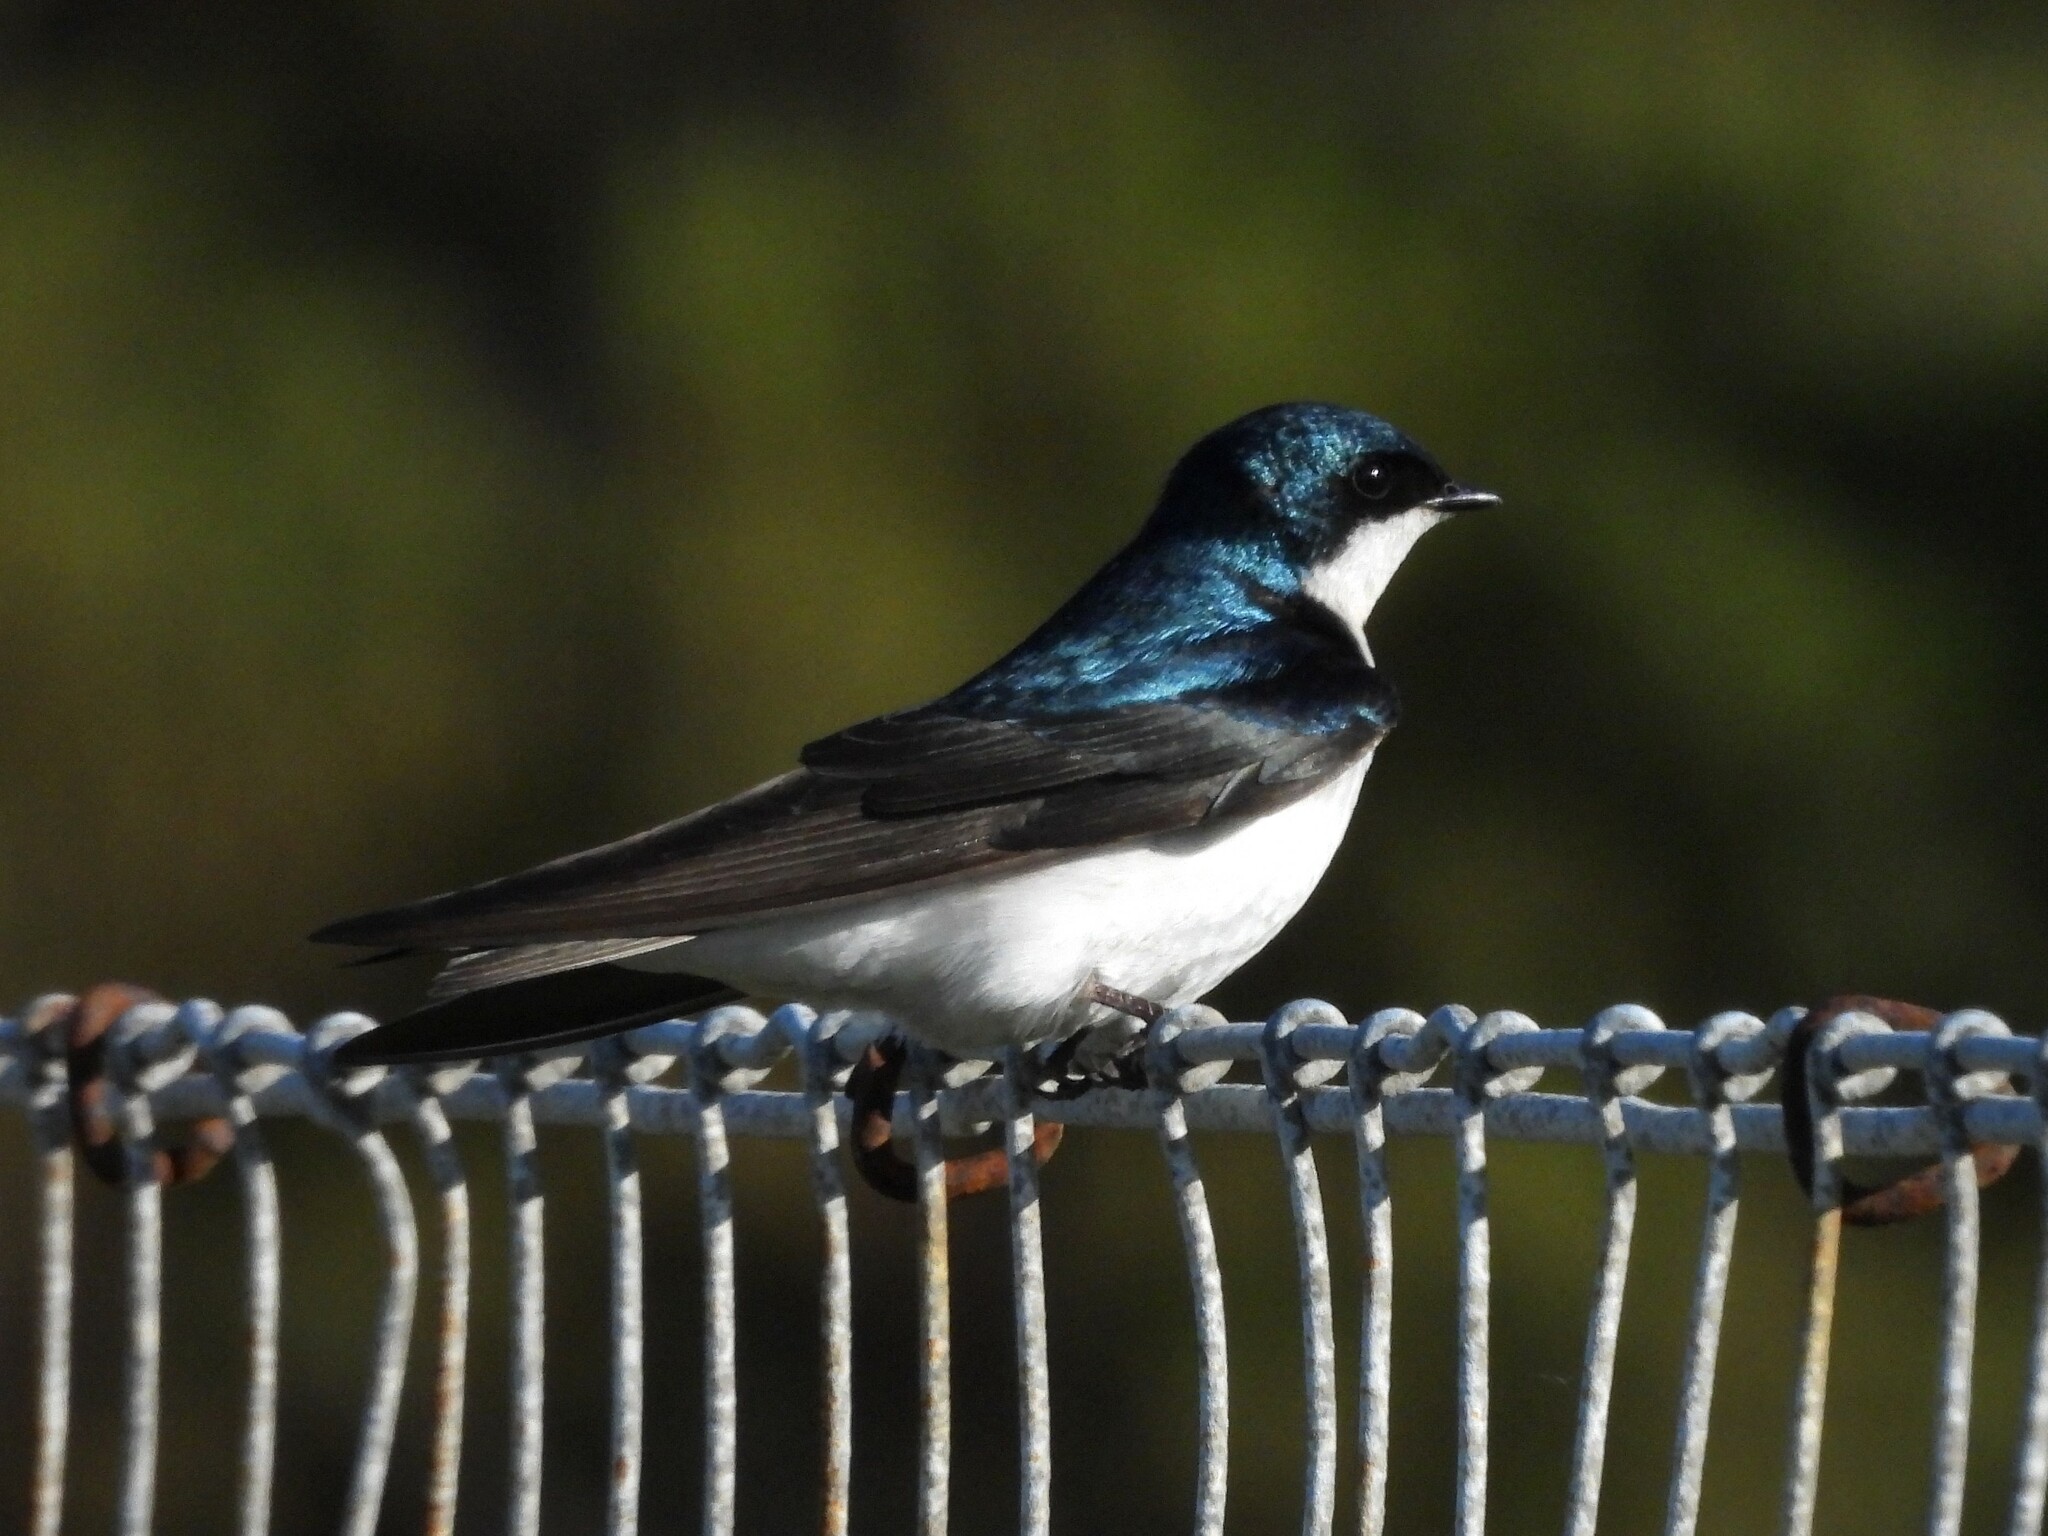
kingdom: Animalia
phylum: Chordata
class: Aves
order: Passeriformes
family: Hirundinidae
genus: Tachycineta
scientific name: Tachycineta bicolor
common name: Tree swallow
